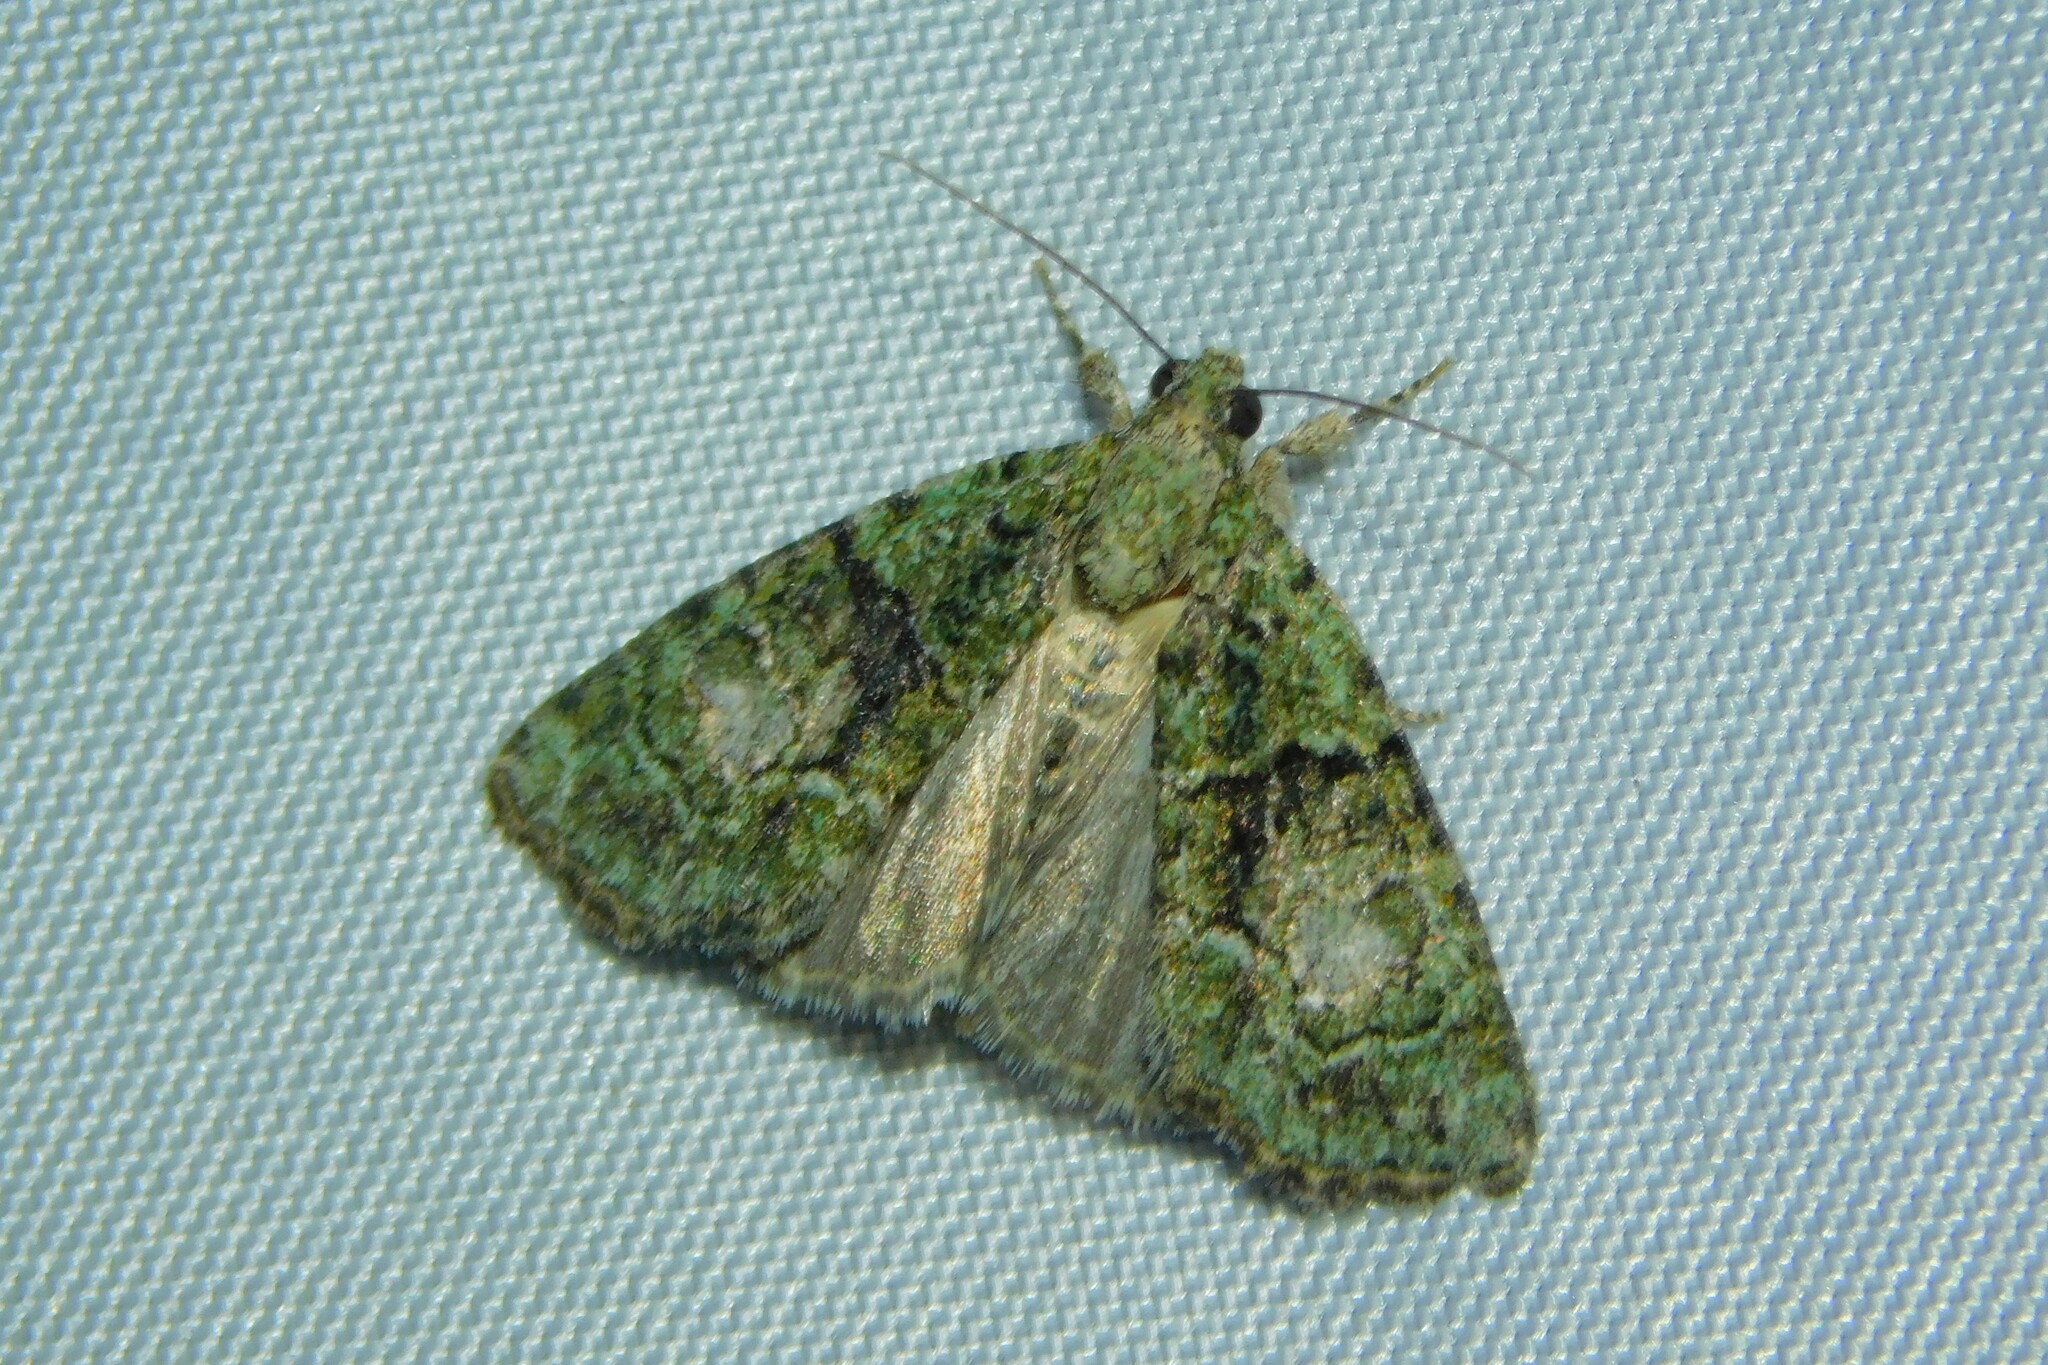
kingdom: Animalia
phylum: Arthropoda
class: Insecta
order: Lepidoptera
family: Noctuidae
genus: Cryphia
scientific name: Cryphia algae
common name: Tree-lichen beauty
